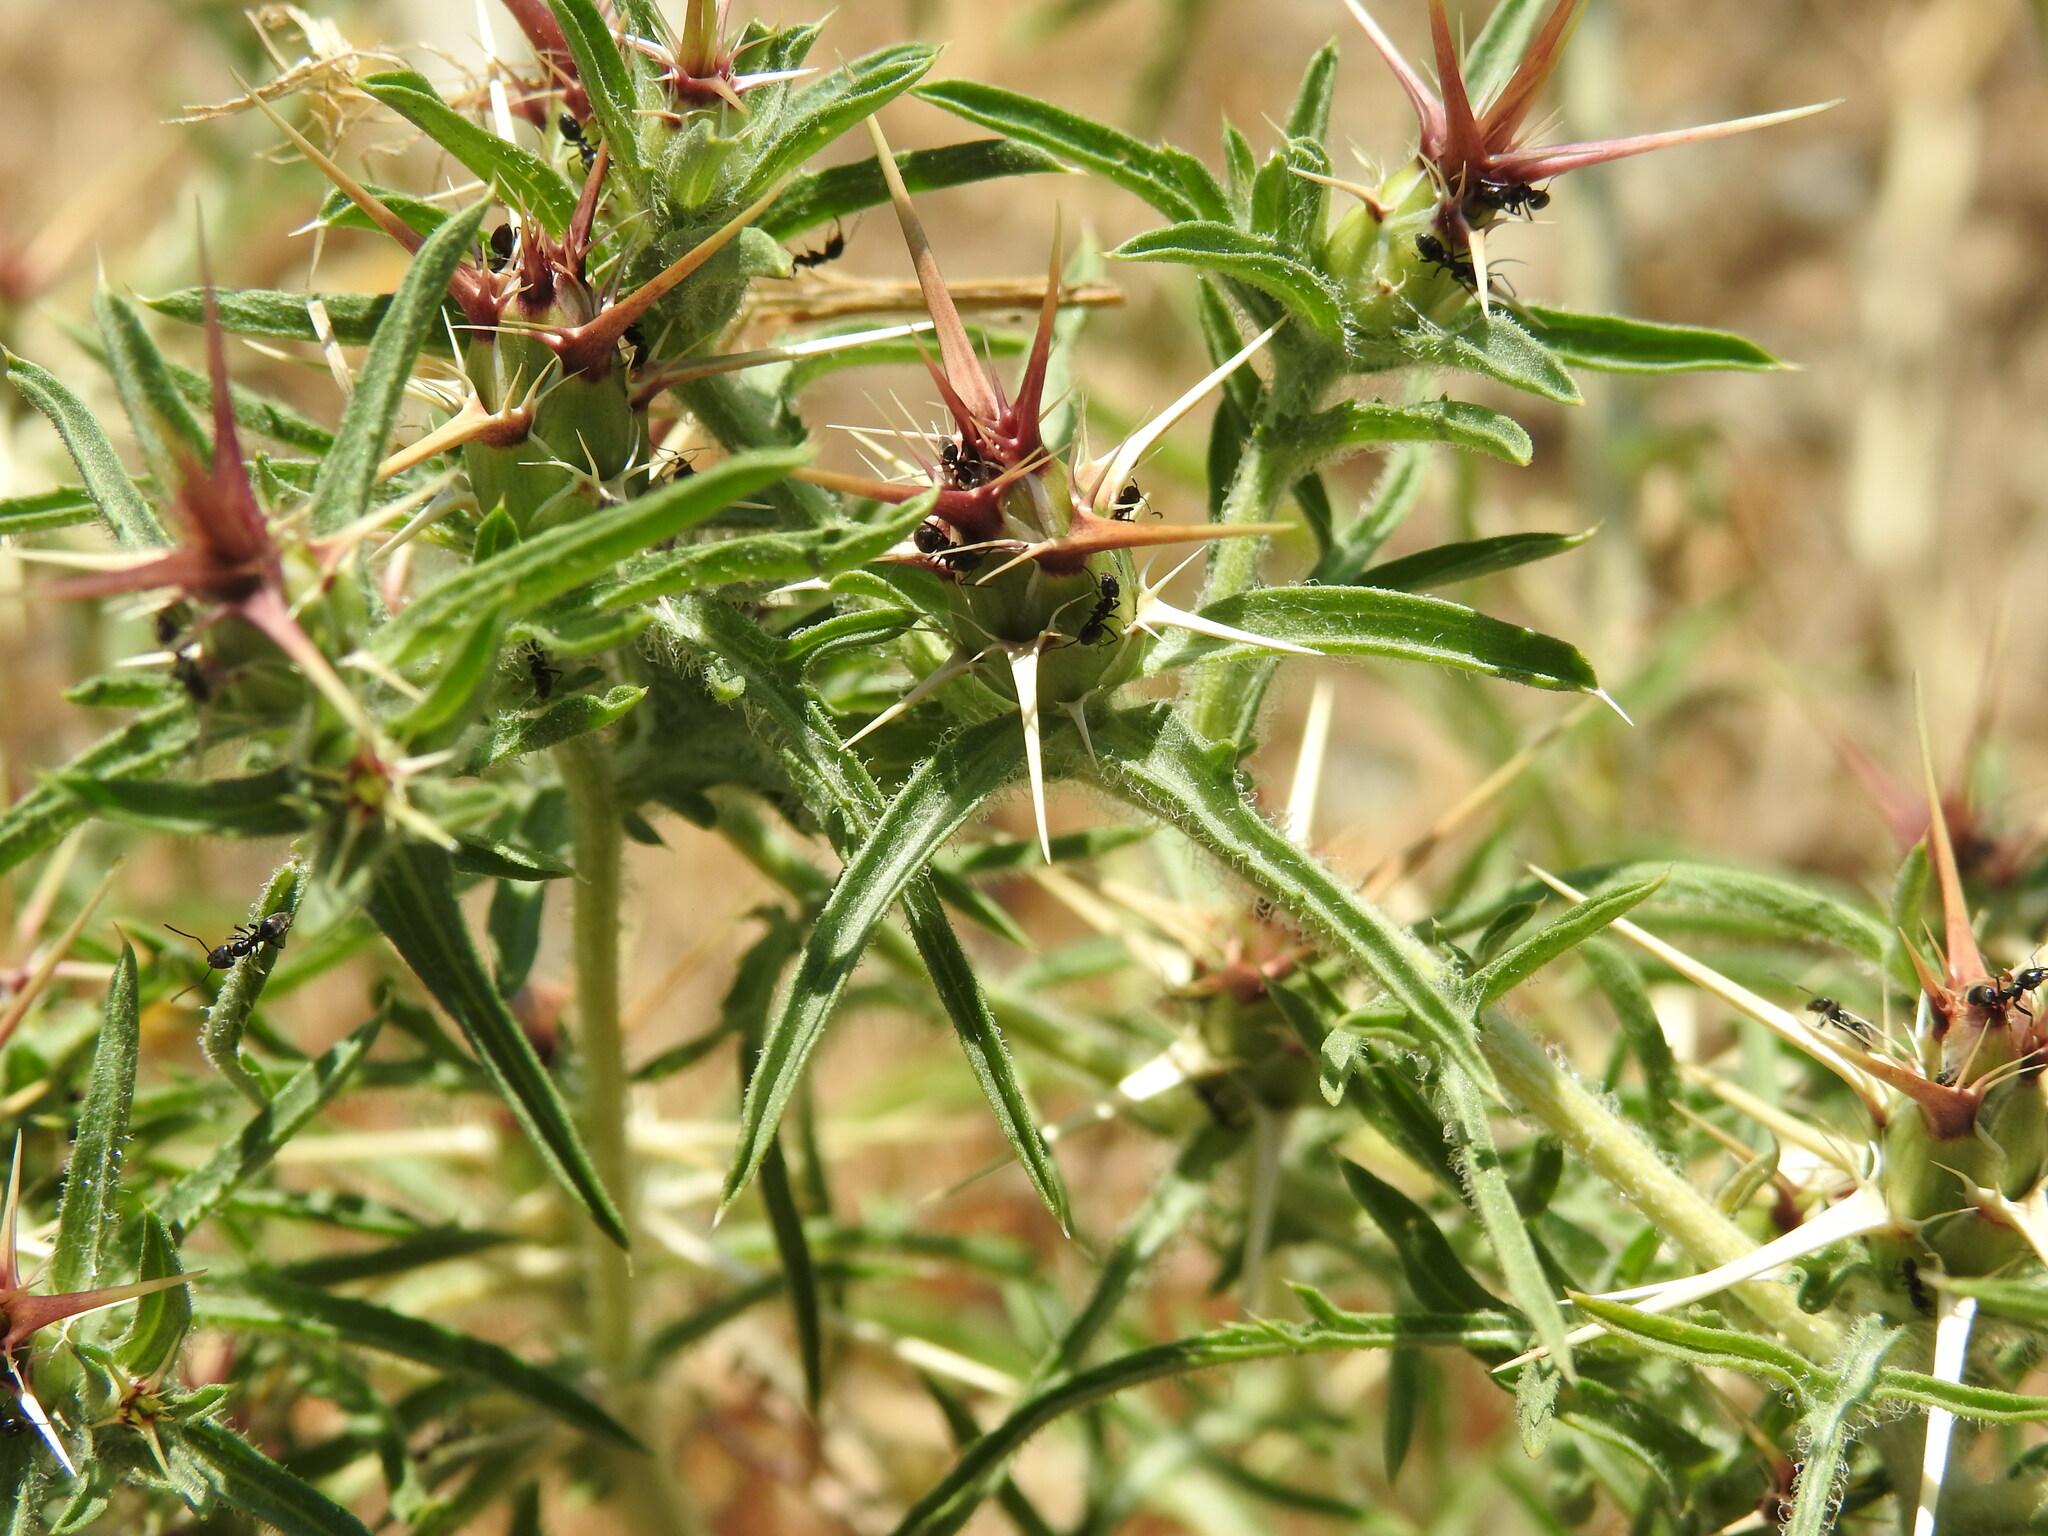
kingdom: Plantae
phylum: Tracheophyta
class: Magnoliopsida
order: Asterales
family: Asteraceae
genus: Centaurea
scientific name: Centaurea calcitrapa
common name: Red star-thistle
